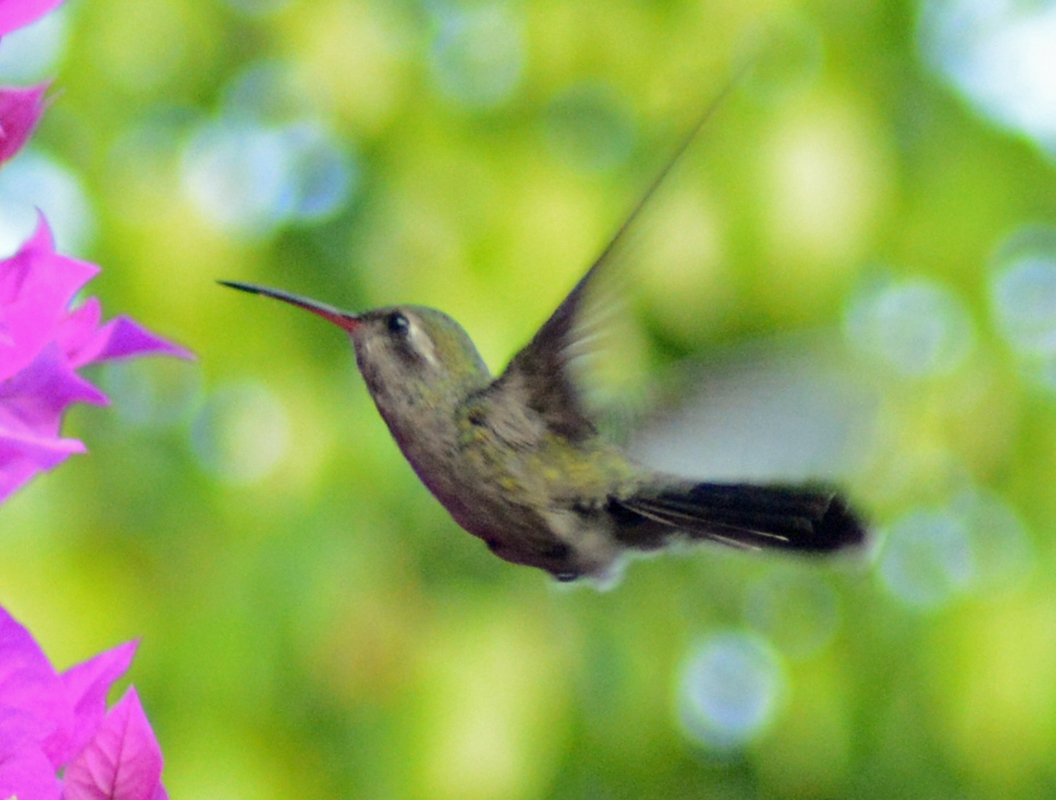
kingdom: Animalia
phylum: Chordata
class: Aves
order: Apodiformes
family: Trochilidae
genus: Cynanthus
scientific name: Cynanthus latirostris
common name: Broad-billed hummingbird
